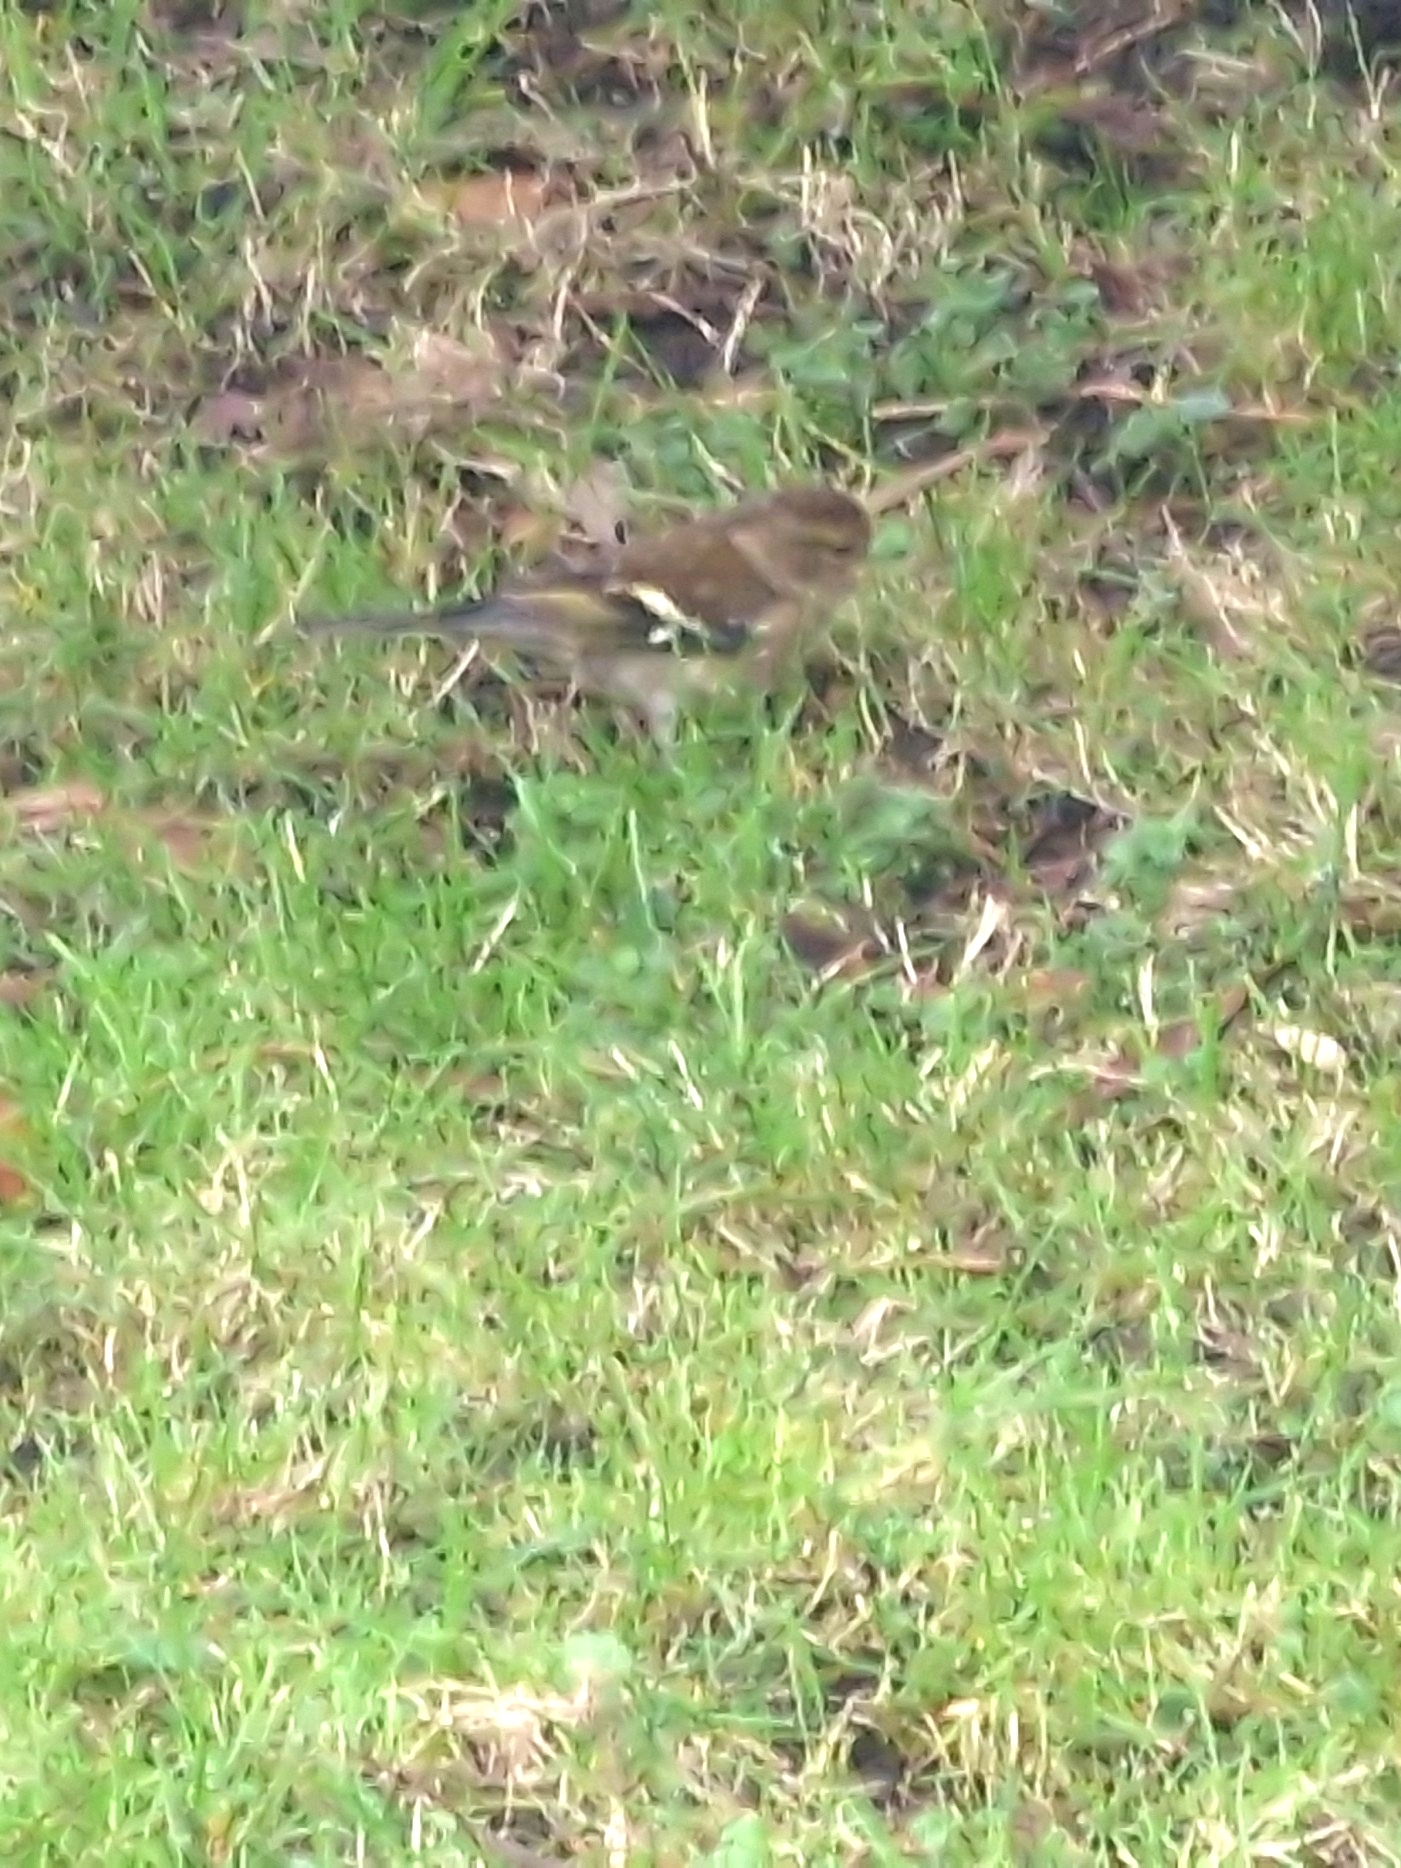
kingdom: Animalia
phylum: Chordata
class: Aves
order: Passeriformes
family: Fringillidae
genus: Fringilla
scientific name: Fringilla coelebs
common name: Common chaffinch
